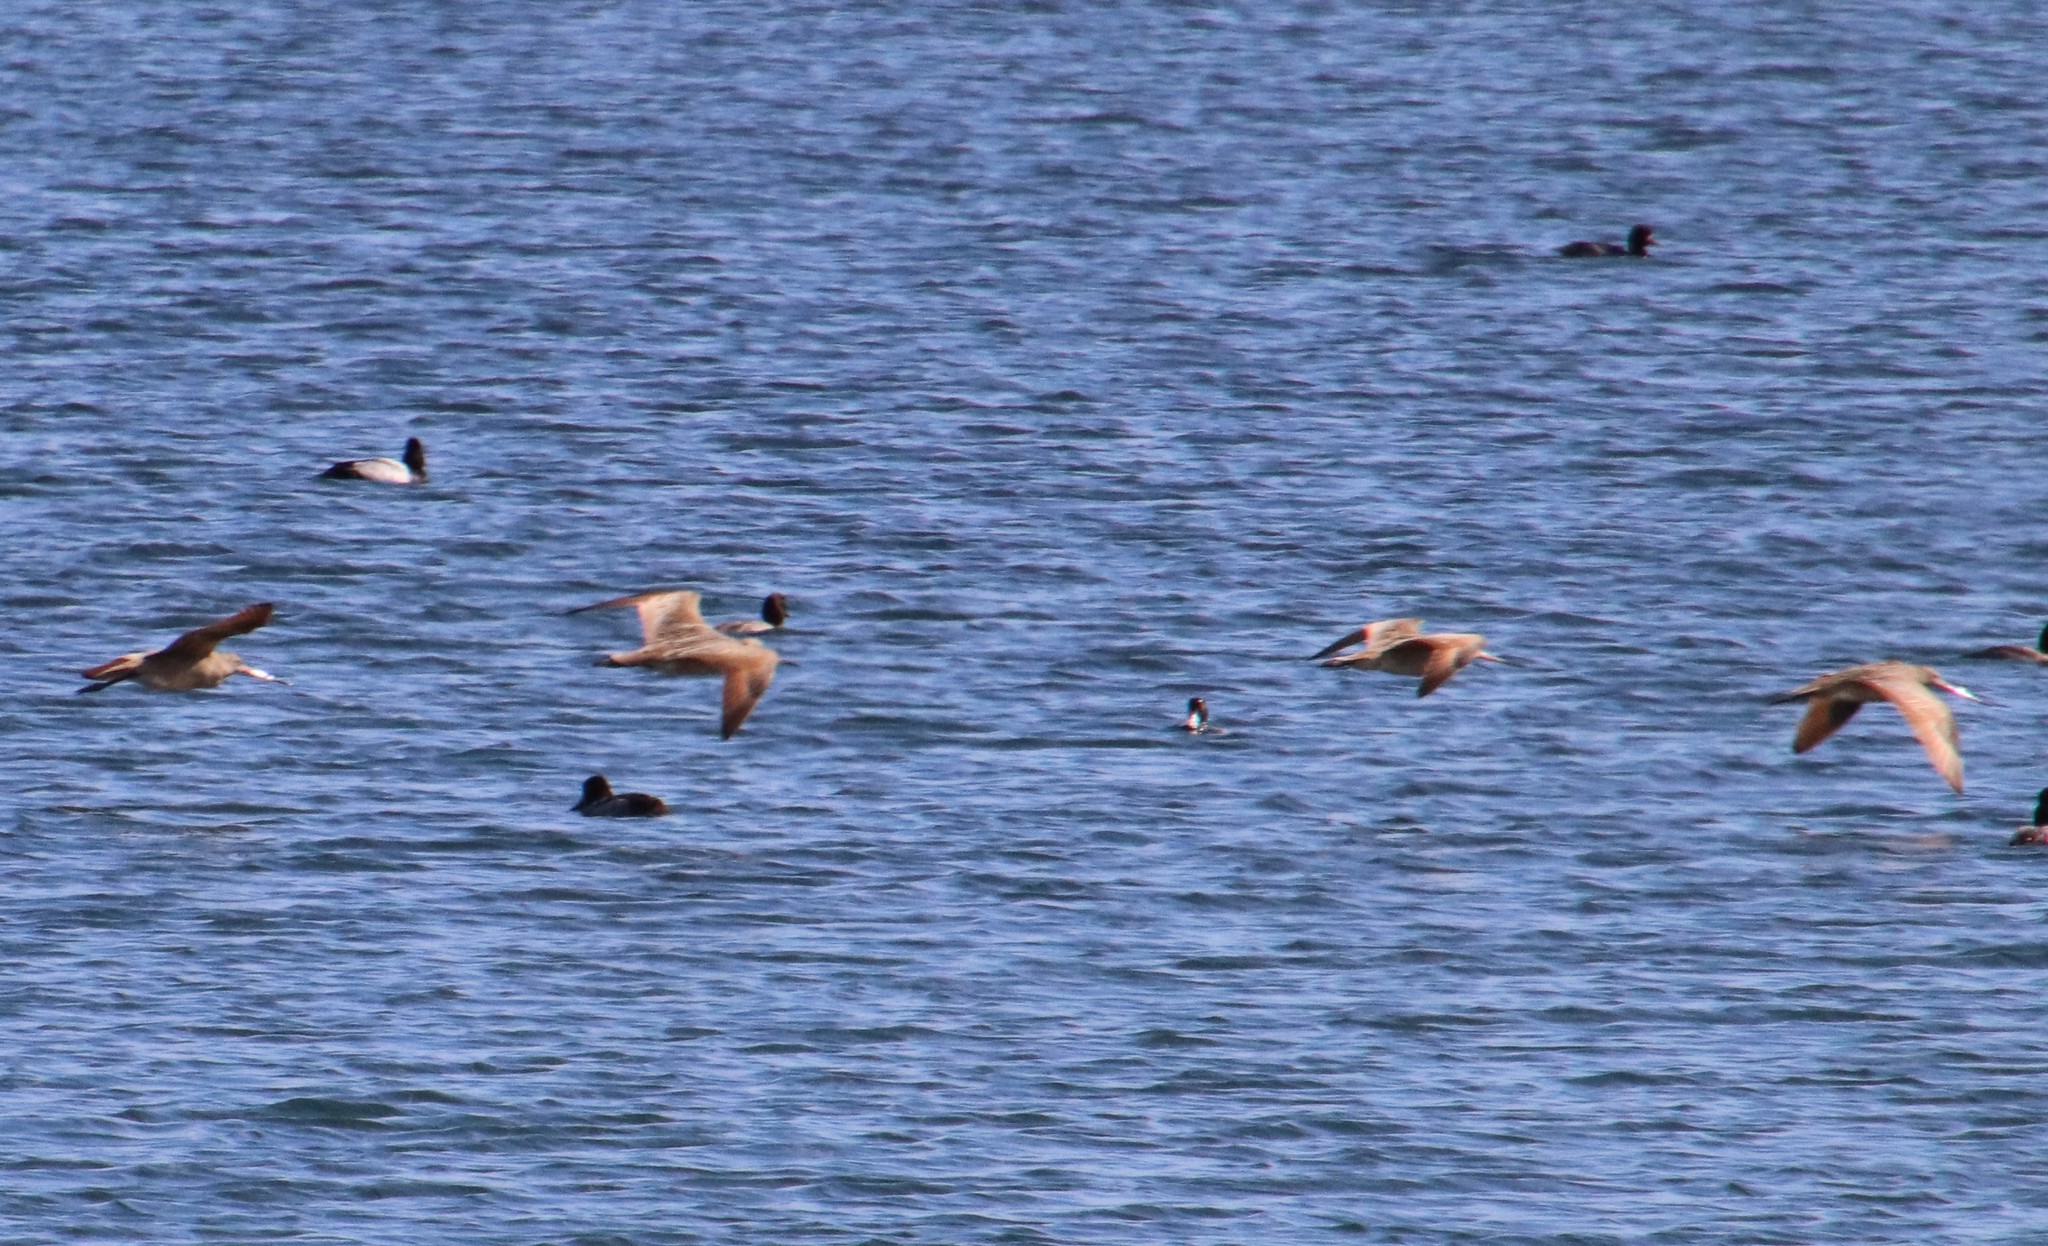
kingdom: Animalia
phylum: Chordata
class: Aves
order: Charadriiformes
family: Scolopacidae
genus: Limosa
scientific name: Limosa fedoa
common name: Marbled godwit
